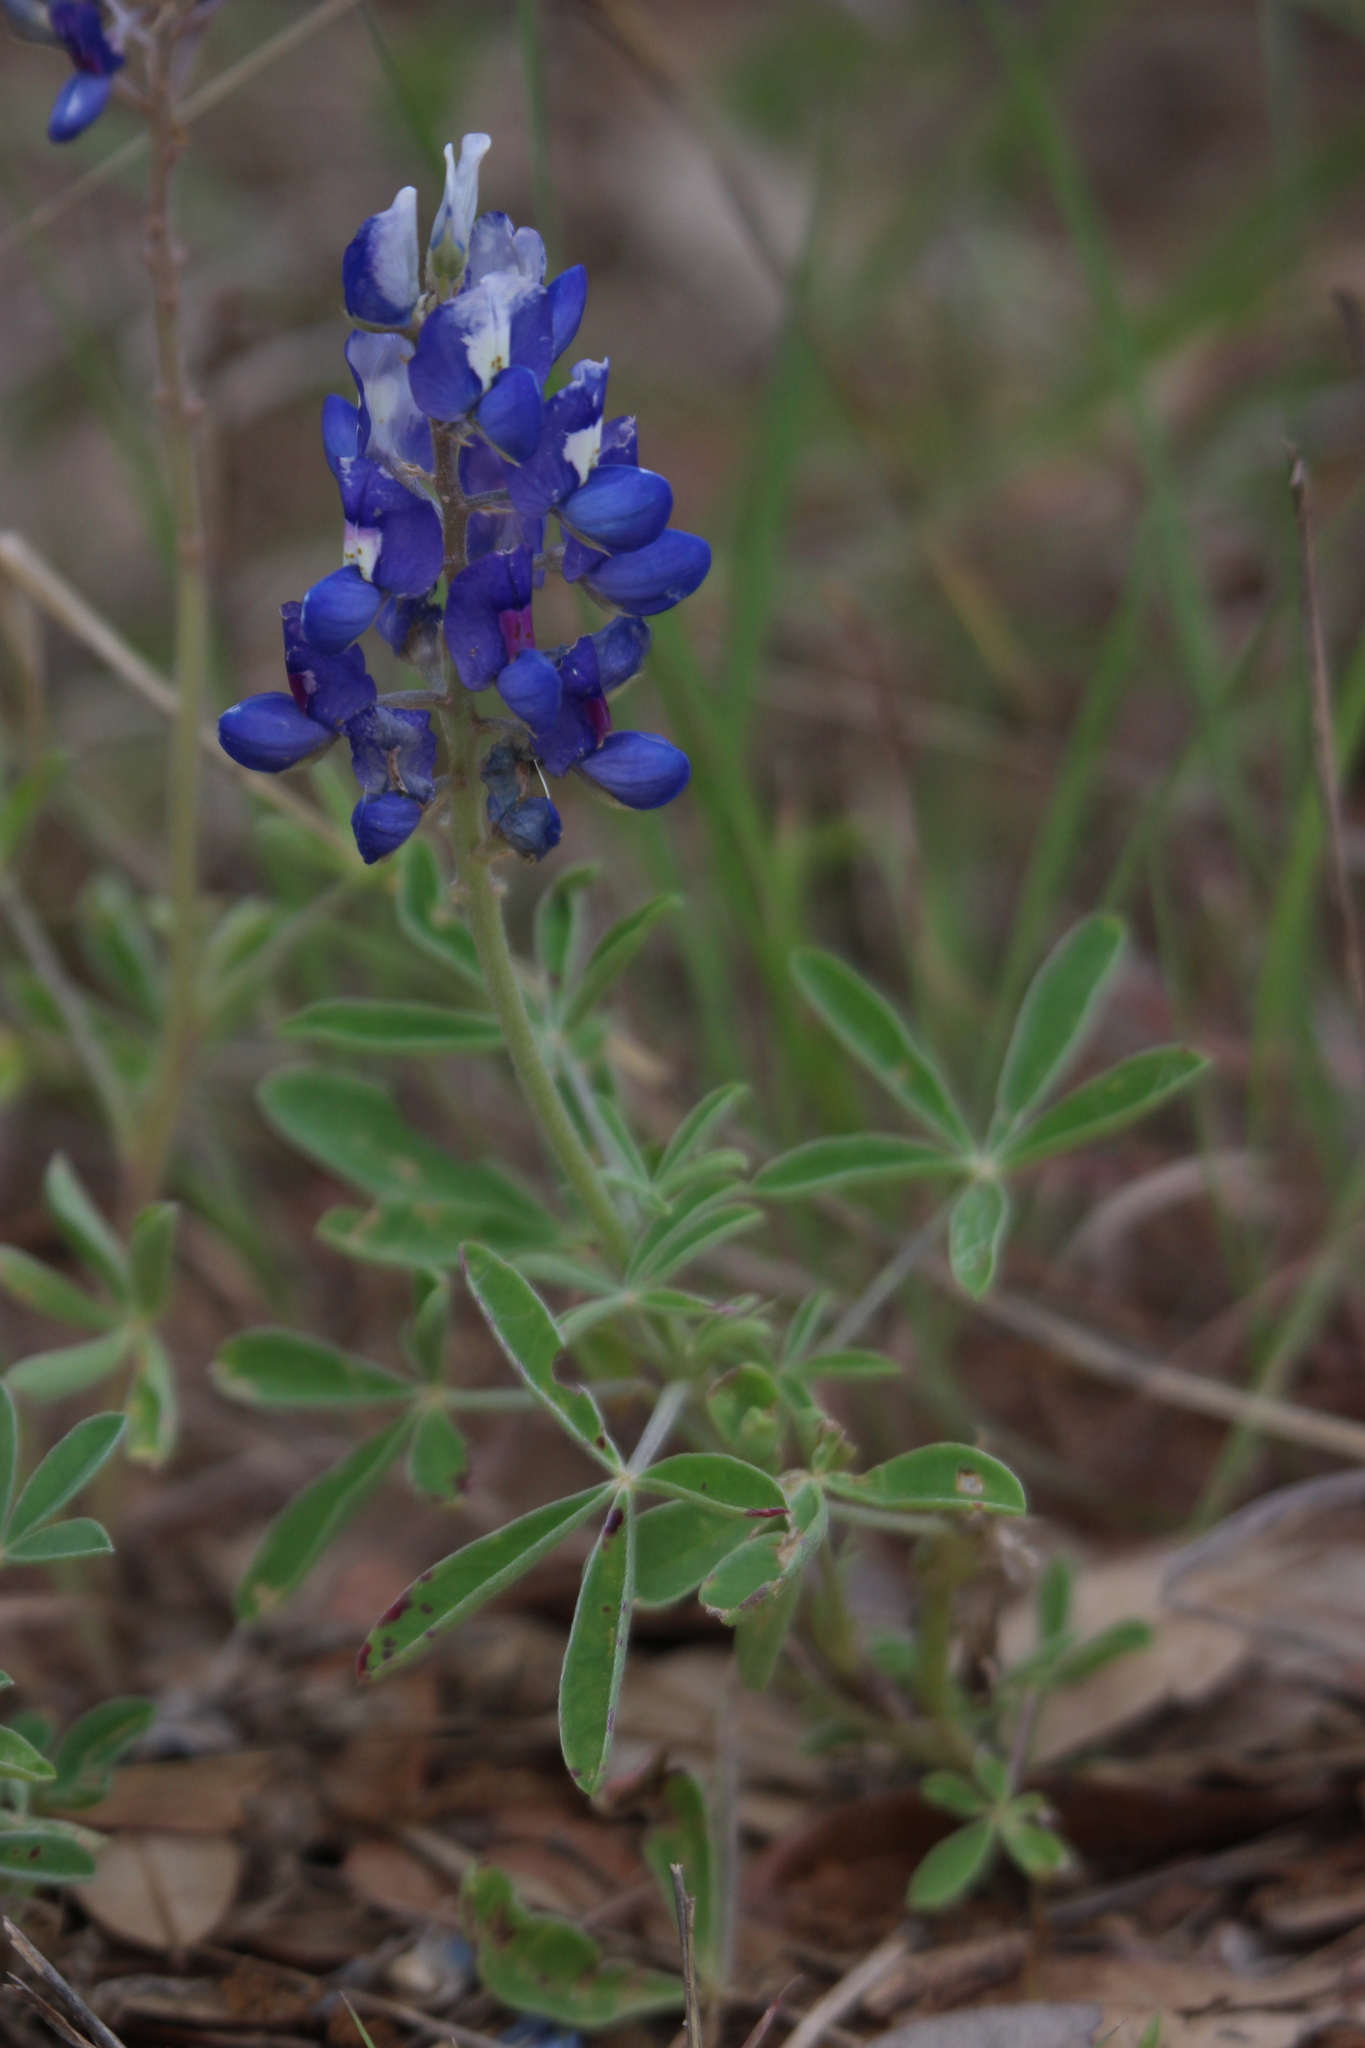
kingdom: Plantae
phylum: Tracheophyta
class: Magnoliopsida
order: Fabales
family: Fabaceae
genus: Lupinus
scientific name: Lupinus texensis
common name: Texas bluebonnet
